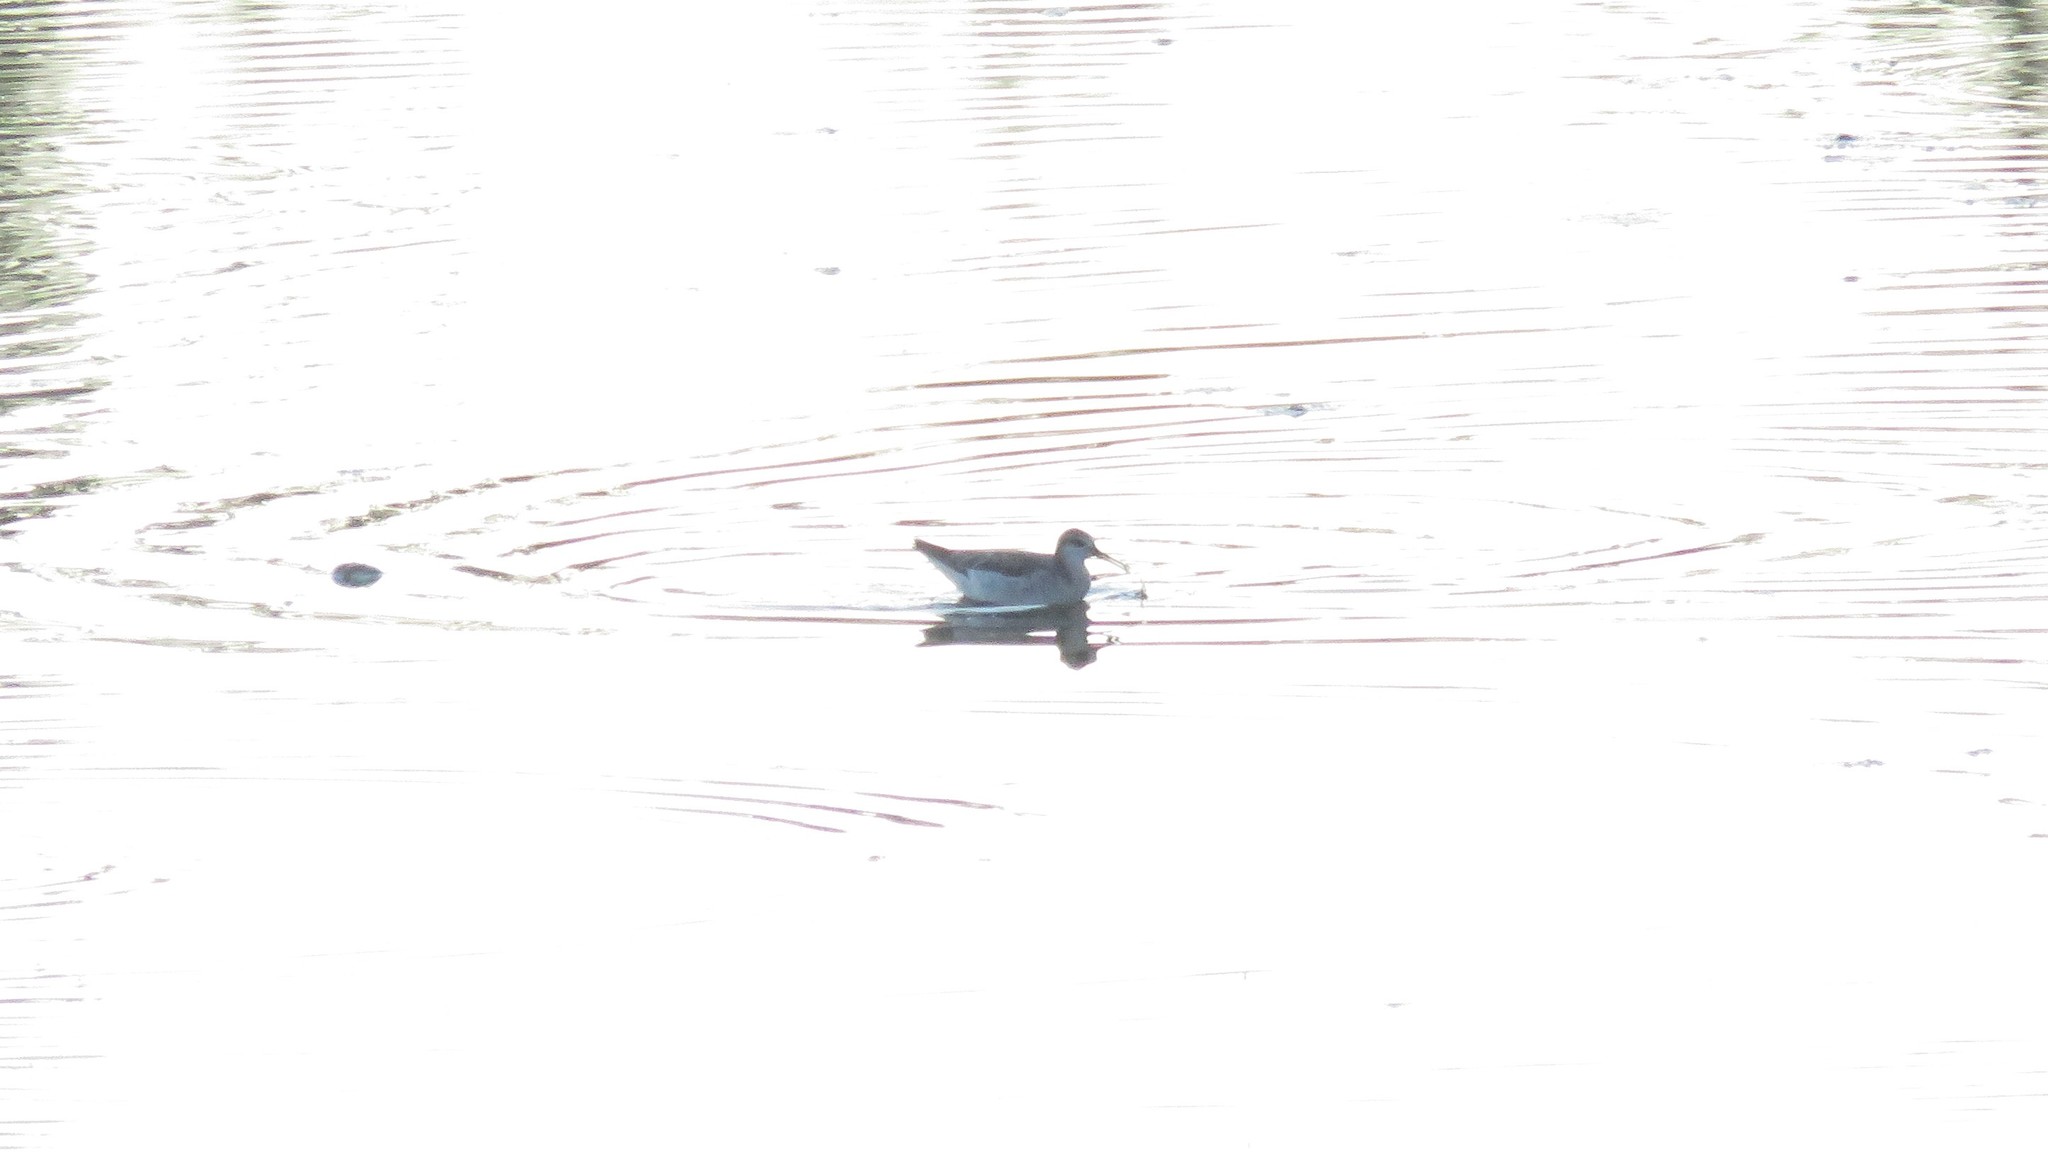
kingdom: Animalia
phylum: Chordata
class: Aves
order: Charadriiformes
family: Scolopacidae
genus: Phalaropus
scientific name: Phalaropus tricolor
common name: Wilson's phalarope
